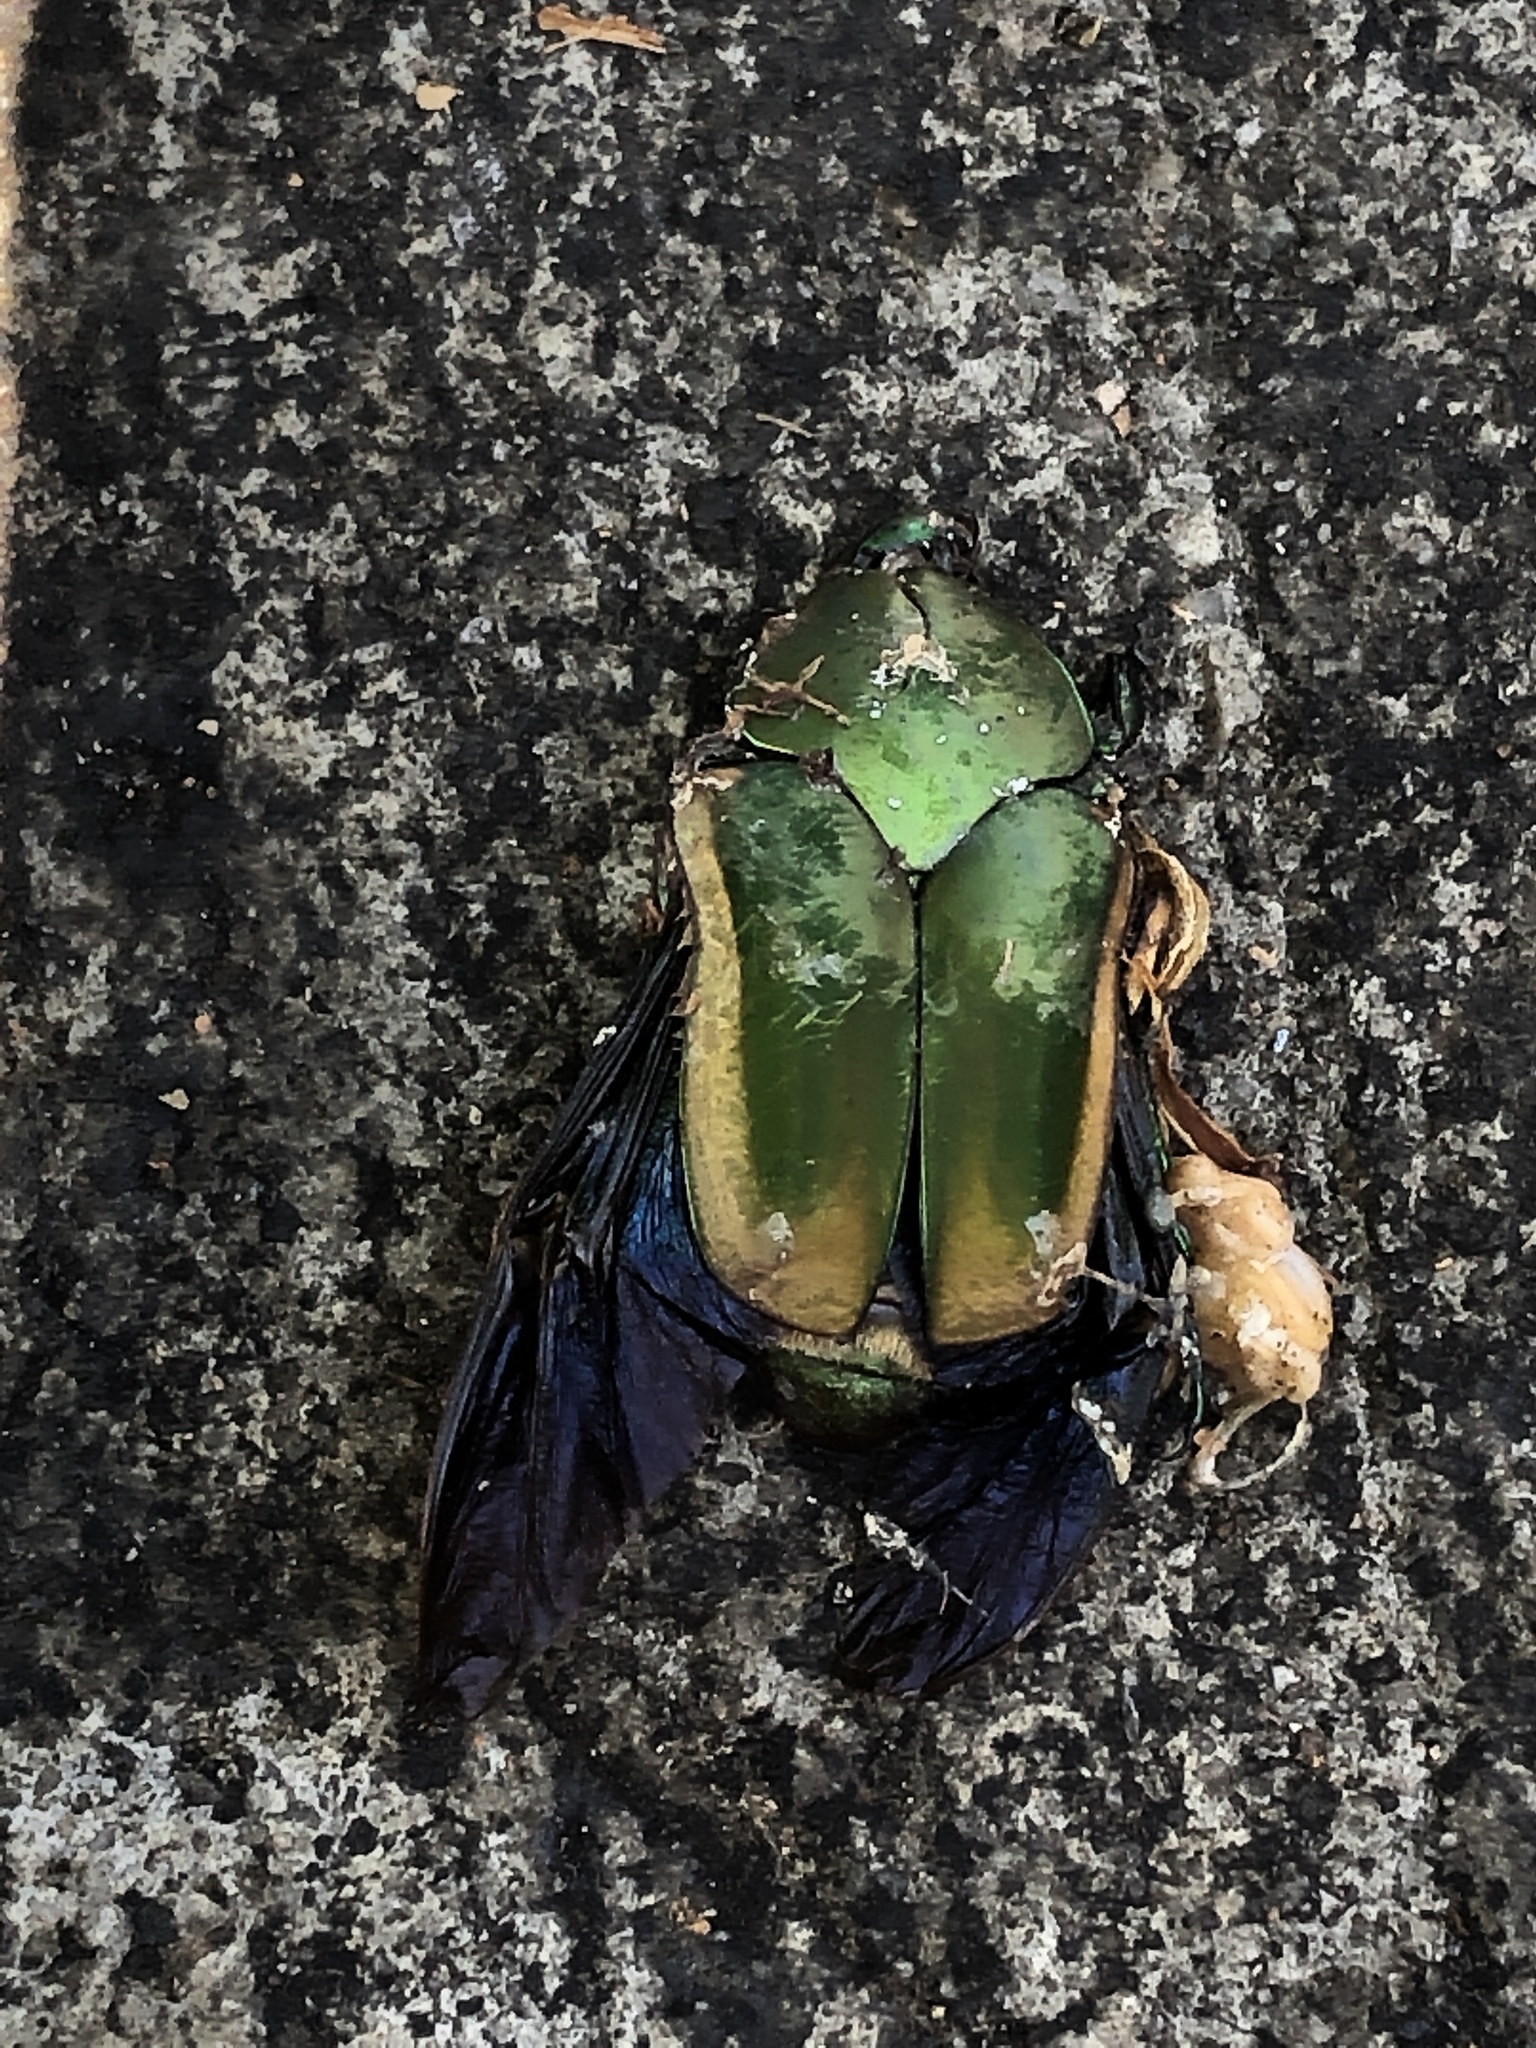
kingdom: Animalia
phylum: Arthropoda
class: Insecta
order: Coleoptera
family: Scarabaeidae
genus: Cotinis
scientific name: Cotinis mutabilis
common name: Figeater beetle
